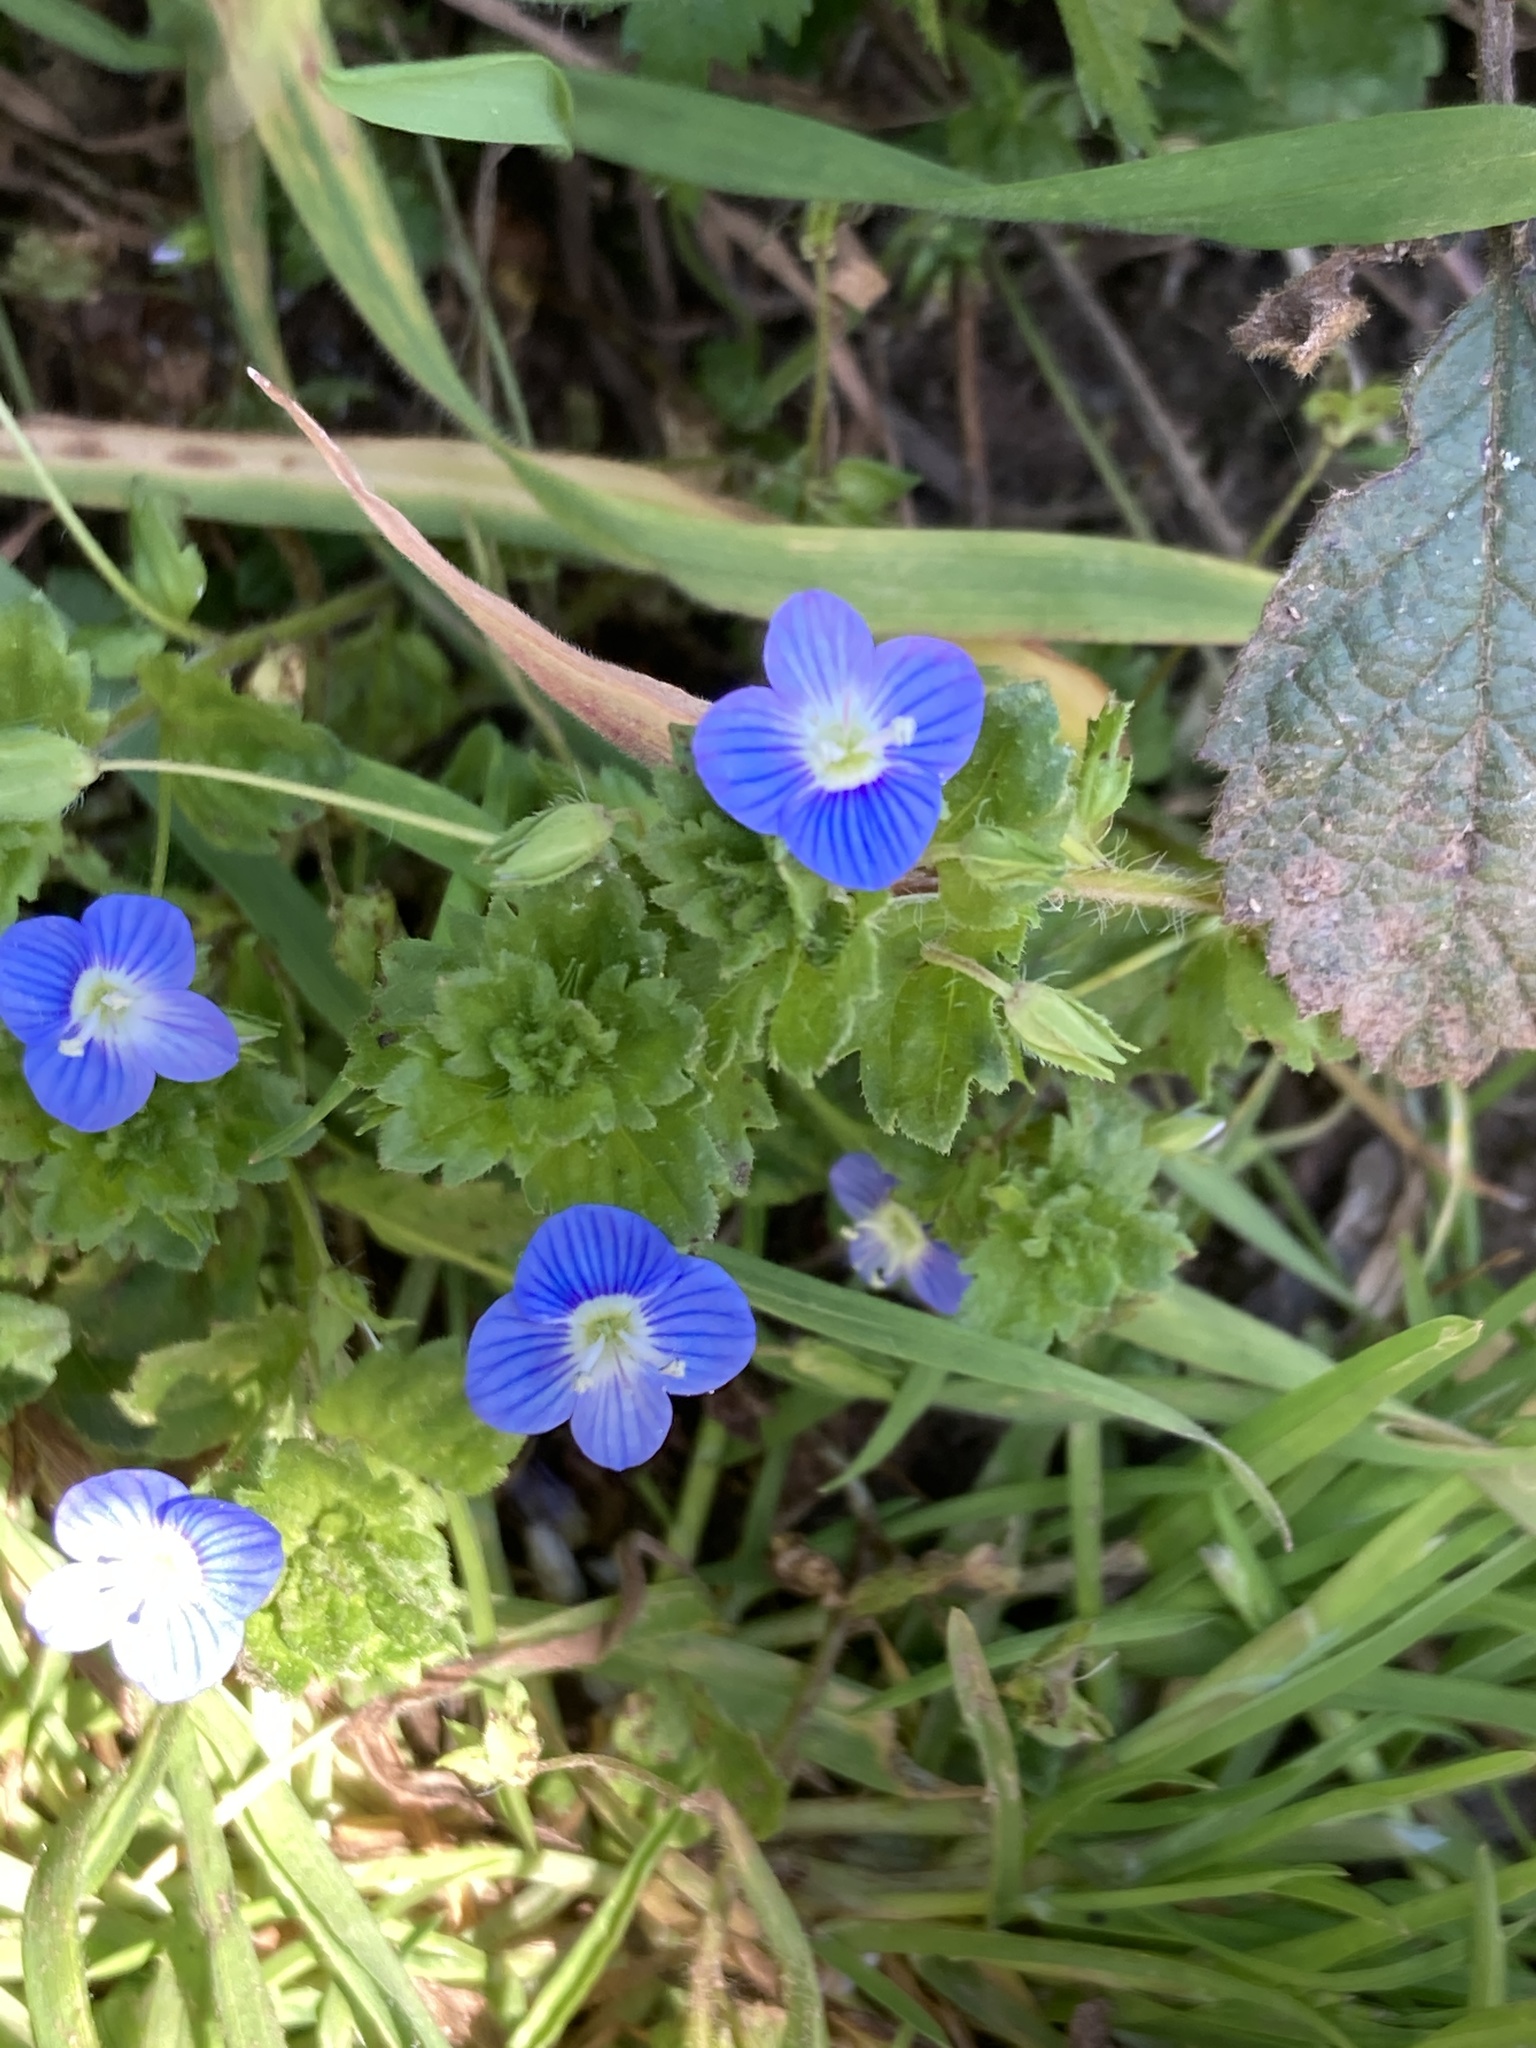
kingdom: Plantae
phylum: Tracheophyta
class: Magnoliopsida
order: Lamiales
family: Plantaginaceae
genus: Veronica
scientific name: Veronica persica
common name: Common field-speedwell
